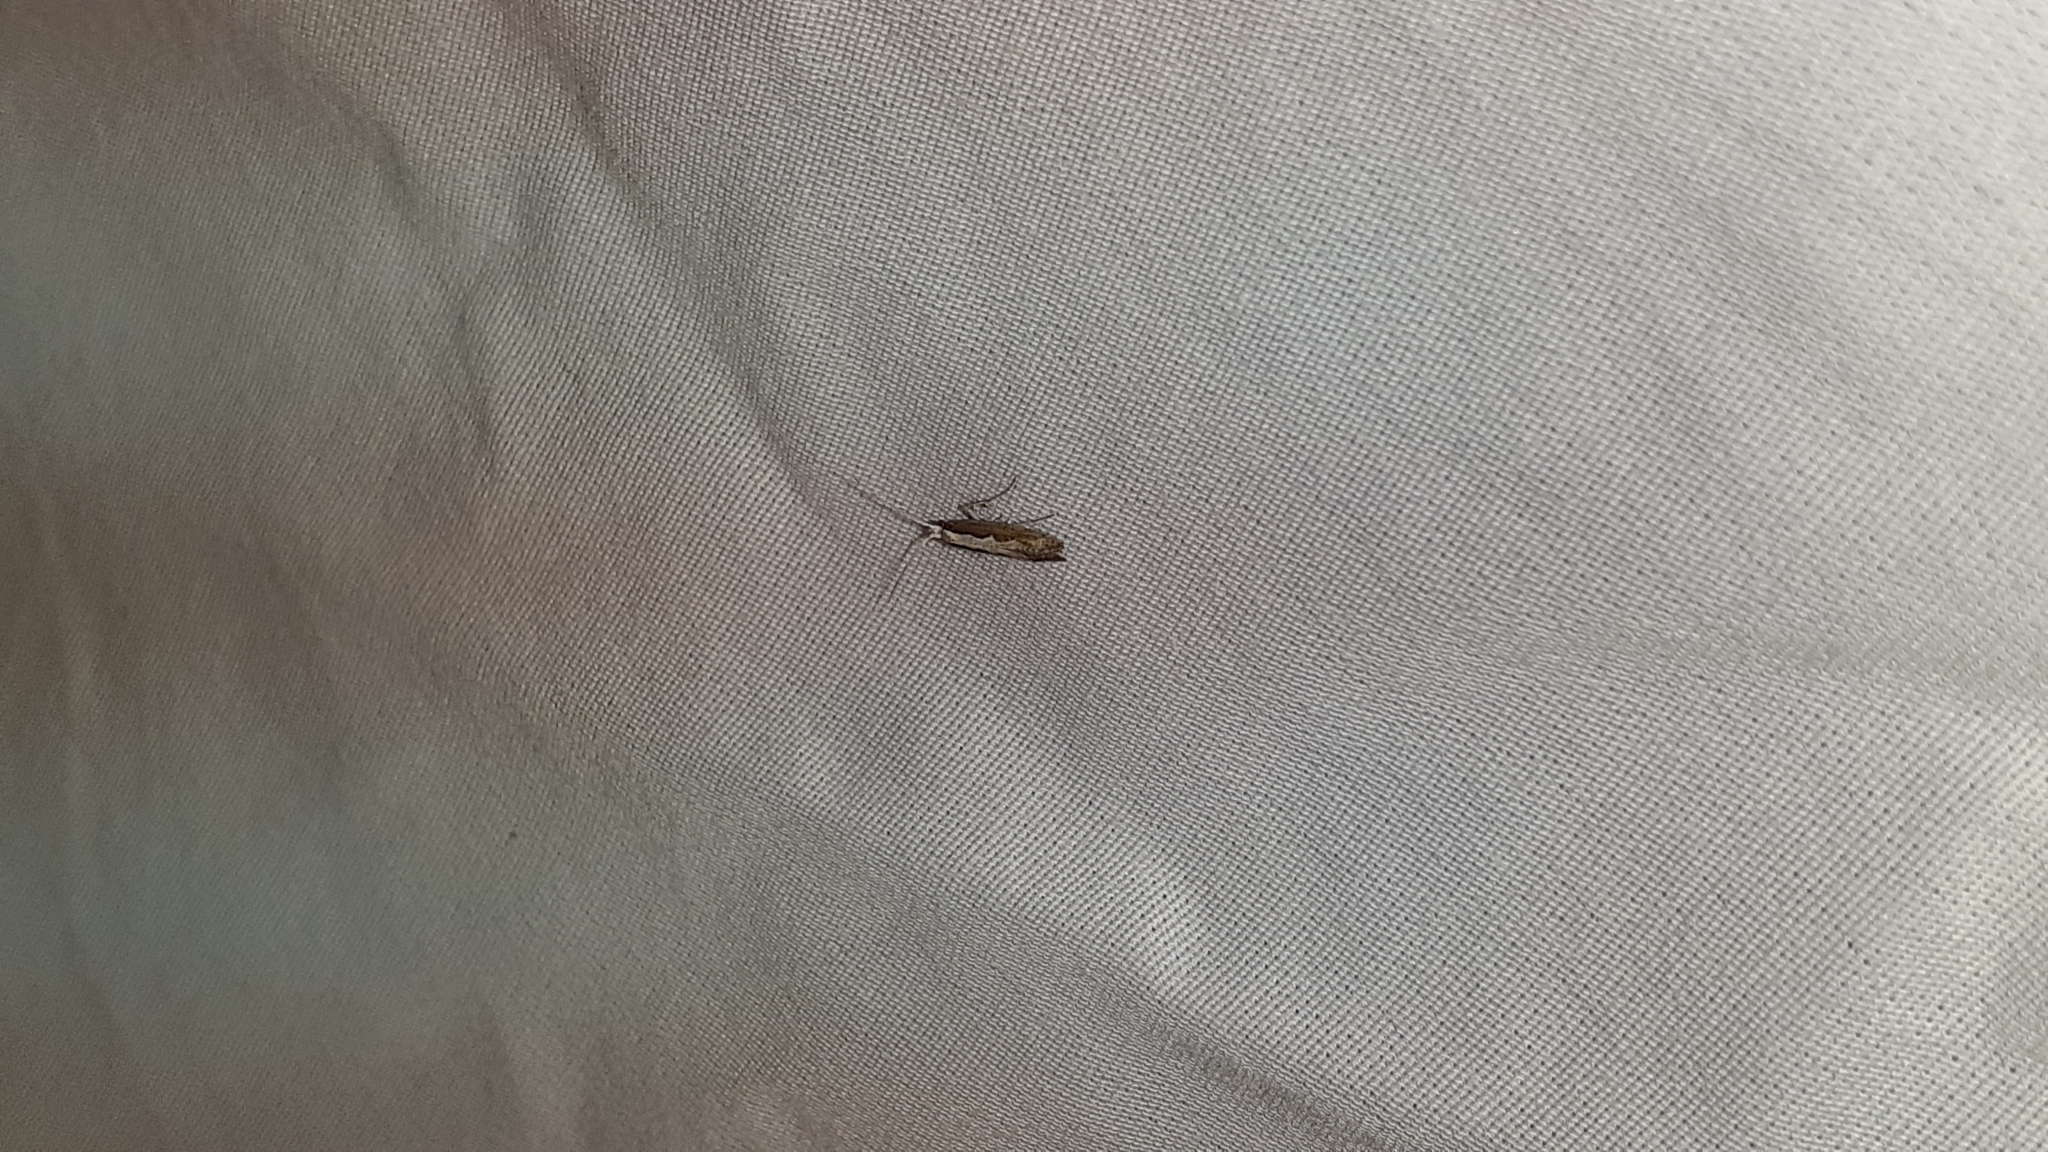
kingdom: Animalia
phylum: Arthropoda
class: Insecta
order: Lepidoptera
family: Plutellidae
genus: Plutella
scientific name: Plutella xylostella
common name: Diamond-back moth
